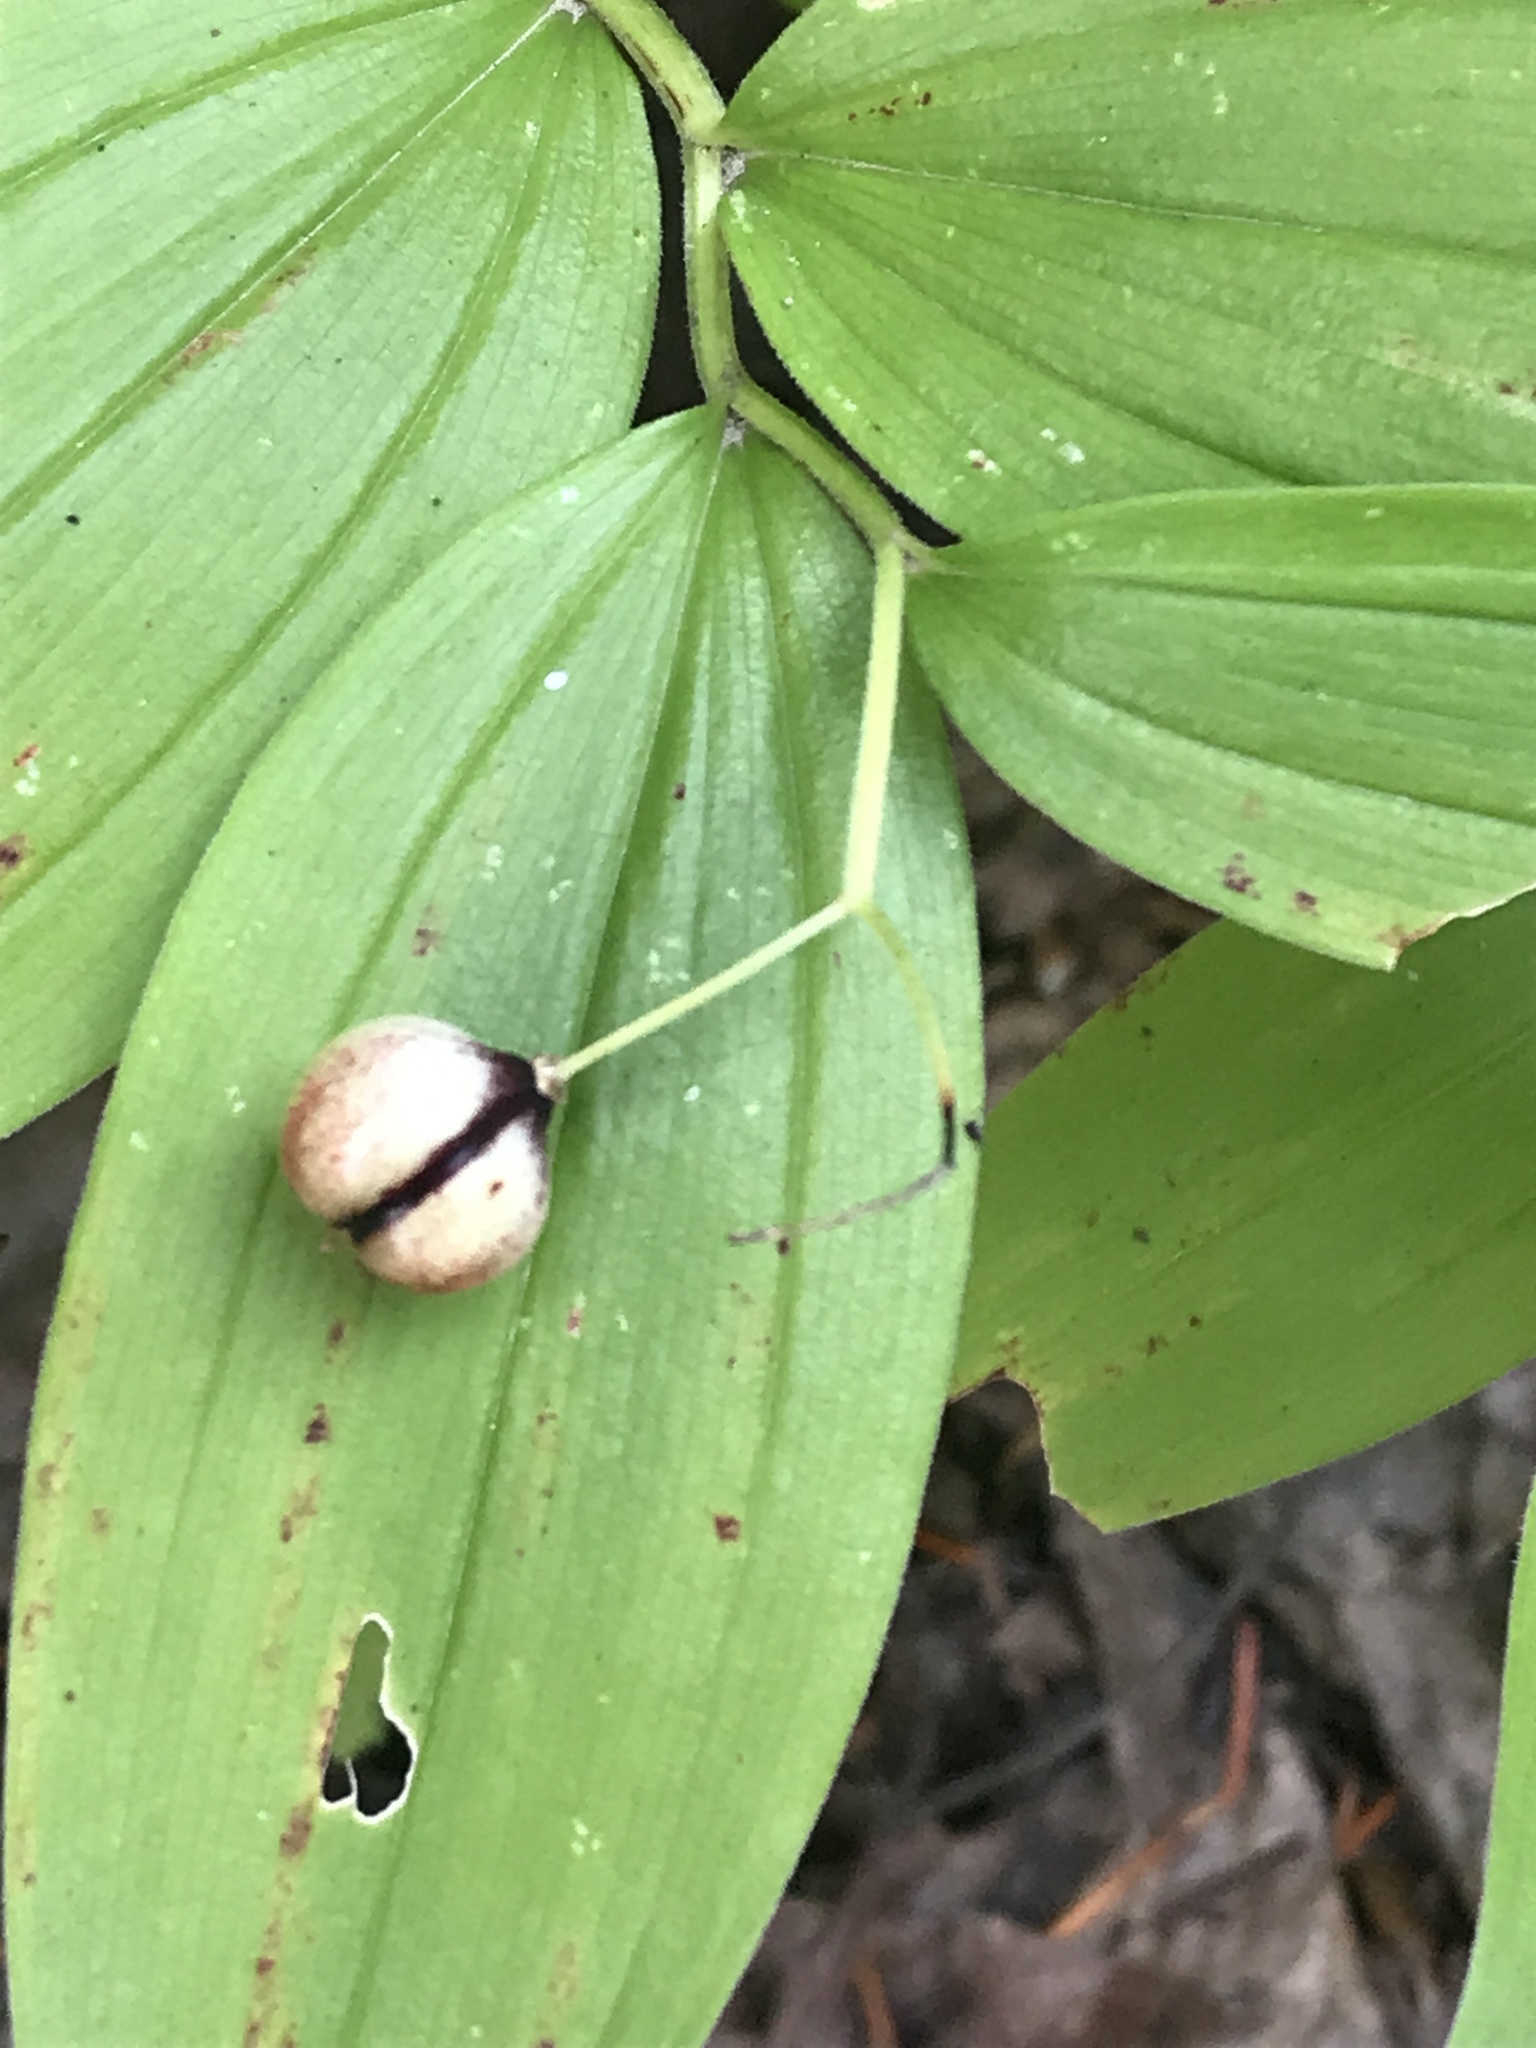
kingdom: Plantae
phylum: Tracheophyta
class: Liliopsida
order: Asparagales
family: Asparagaceae
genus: Maianthemum
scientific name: Maianthemum stellatum
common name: Little false solomon's seal
